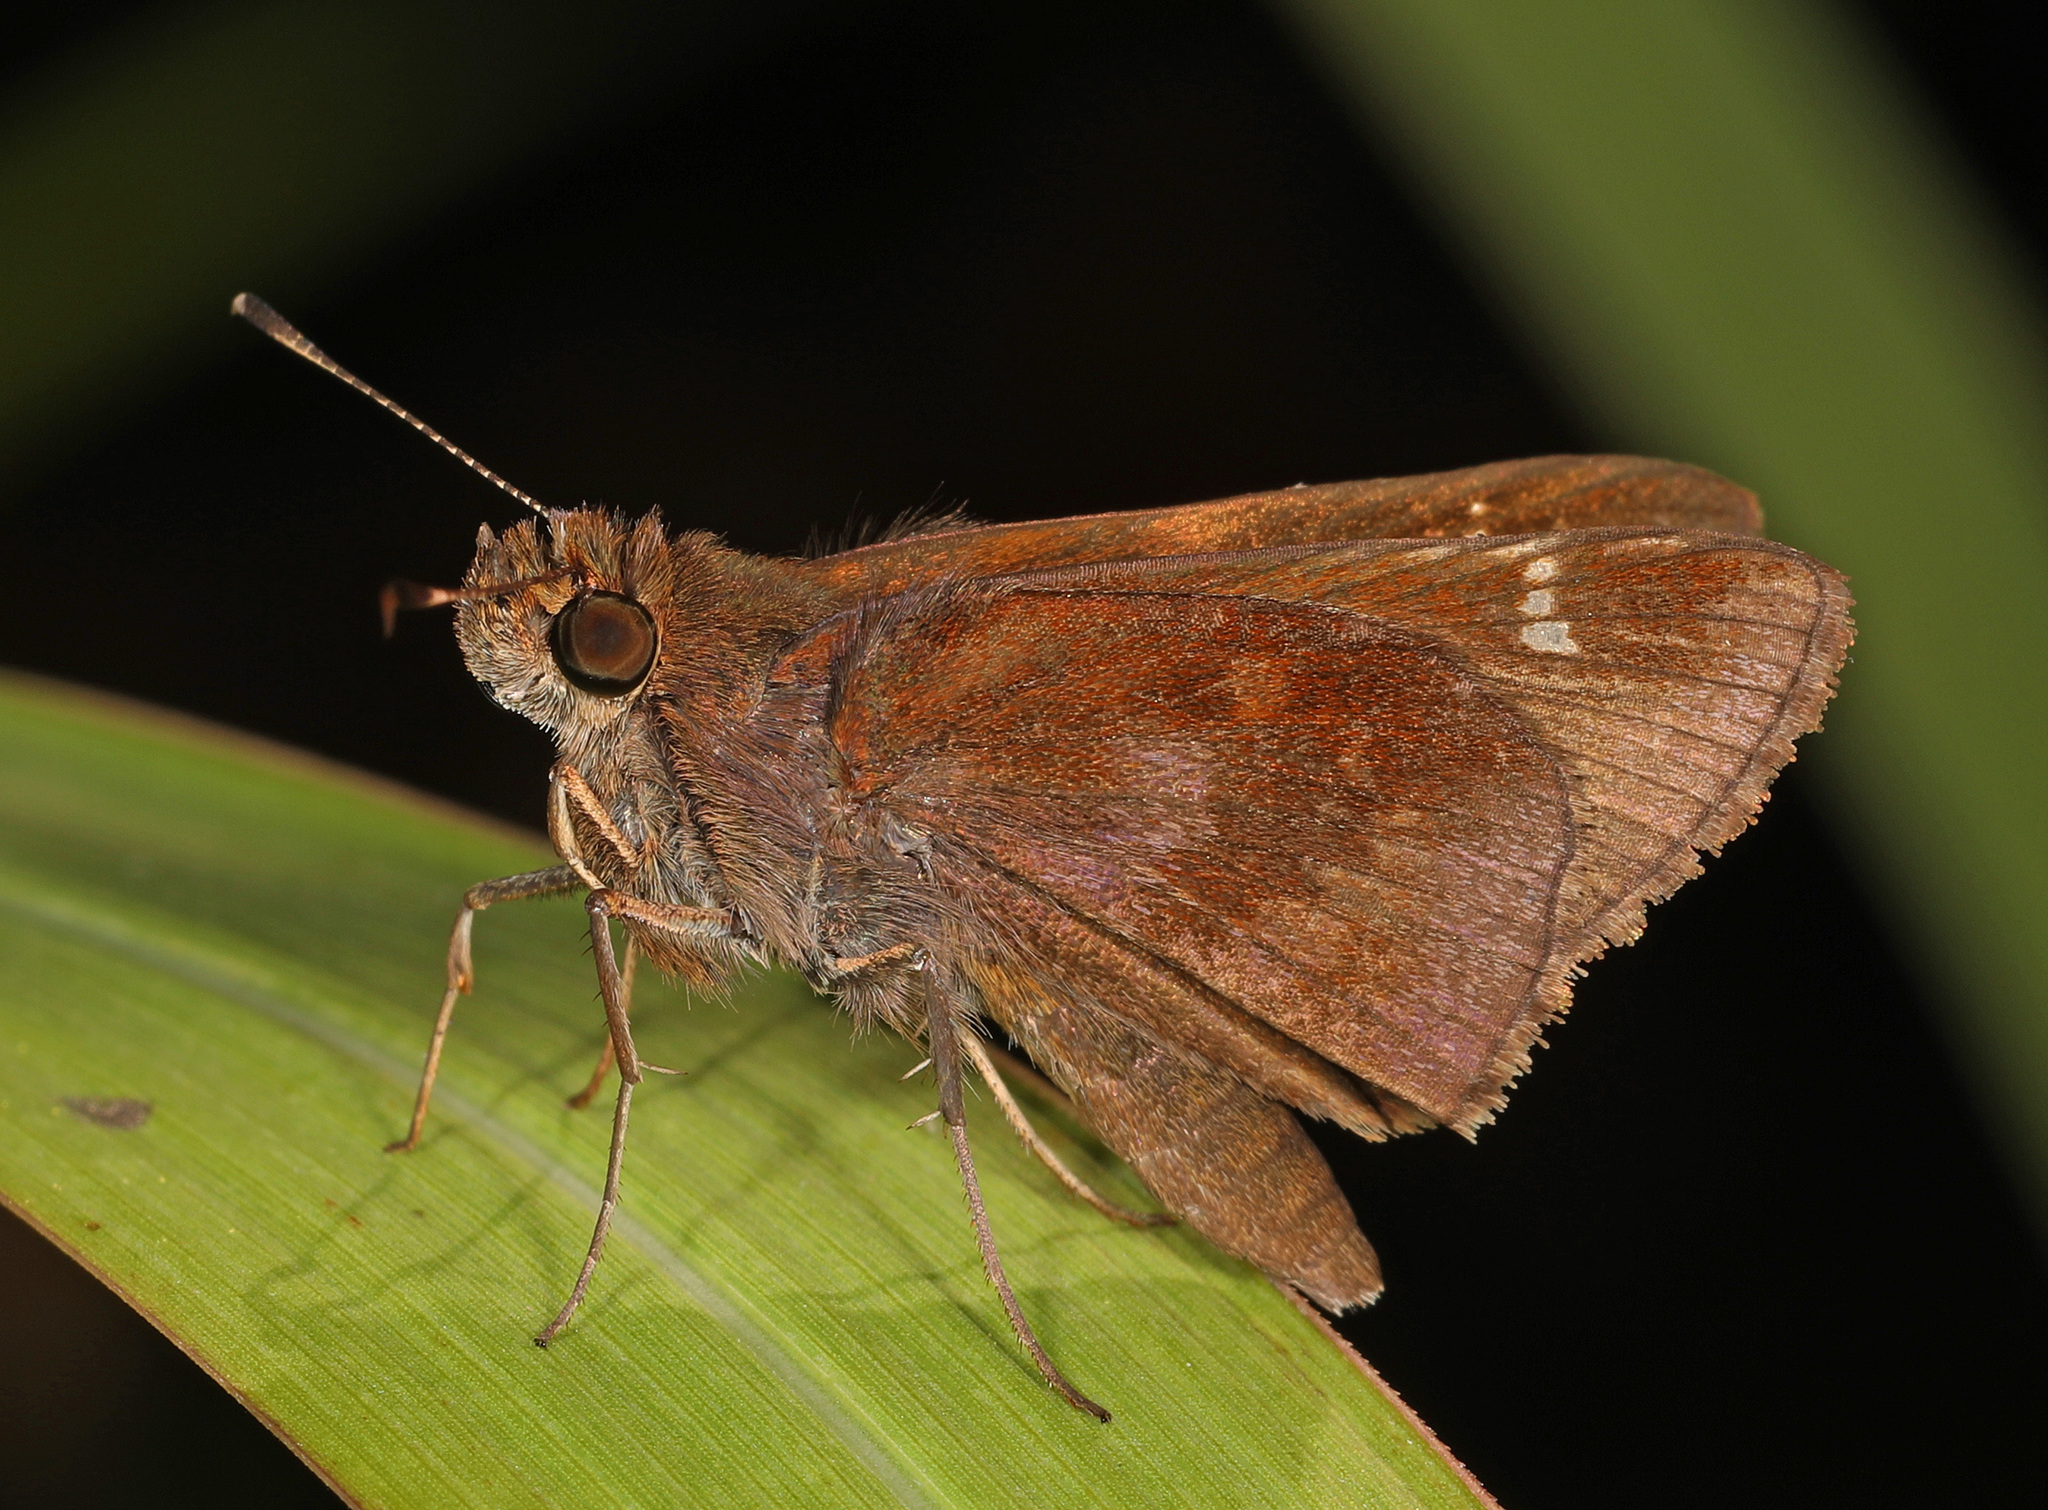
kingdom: Animalia
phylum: Arthropoda
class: Insecta
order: Lepidoptera
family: Hesperiidae
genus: Lerema
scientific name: Lerema accius
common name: Clouded skipper
